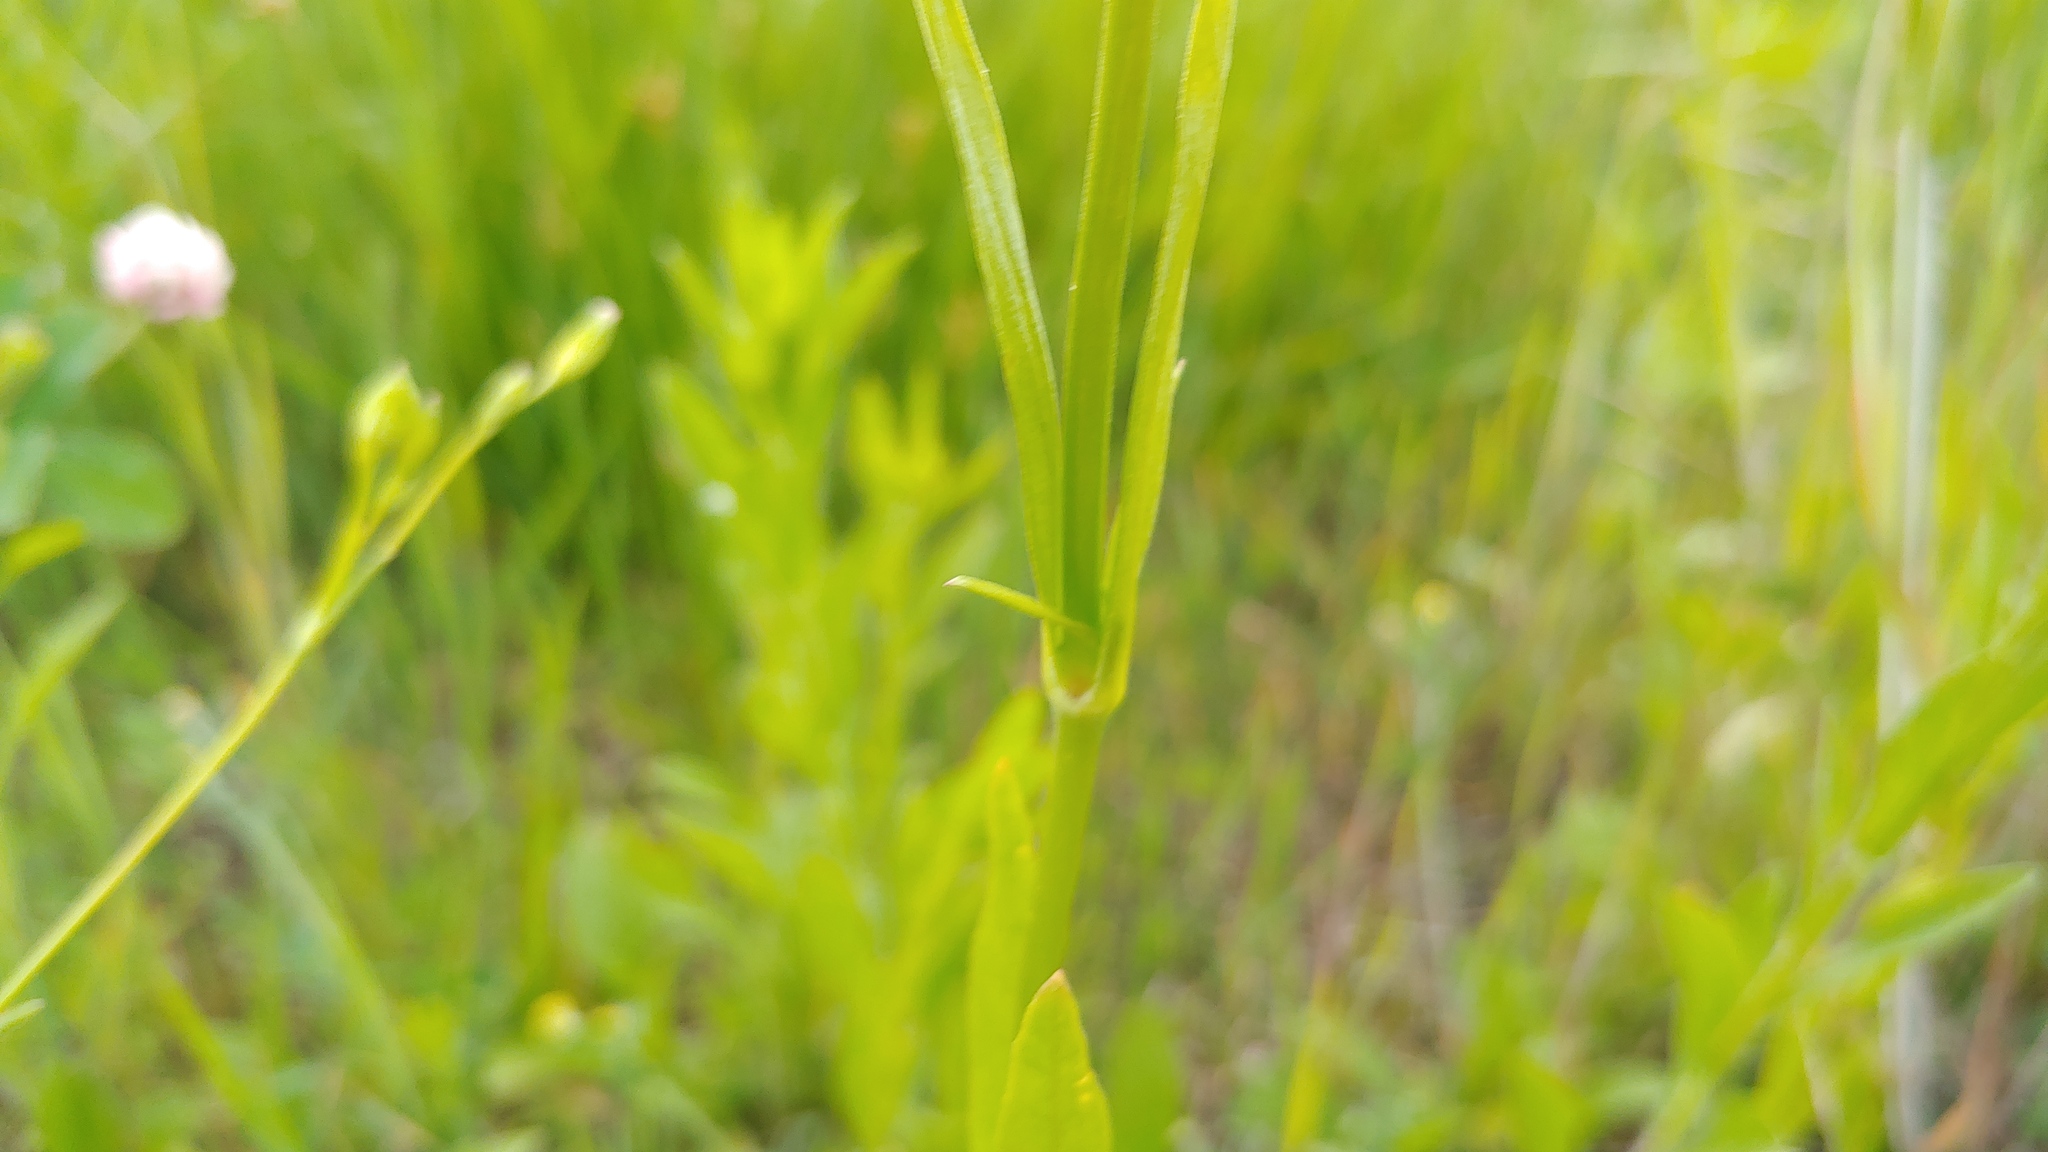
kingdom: Plantae
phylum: Tracheophyta
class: Magnoliopsida
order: Caryophyllales
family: Caryophyllaceae
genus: Silene
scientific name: Silene antirrhina
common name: Sleepy catchfly
